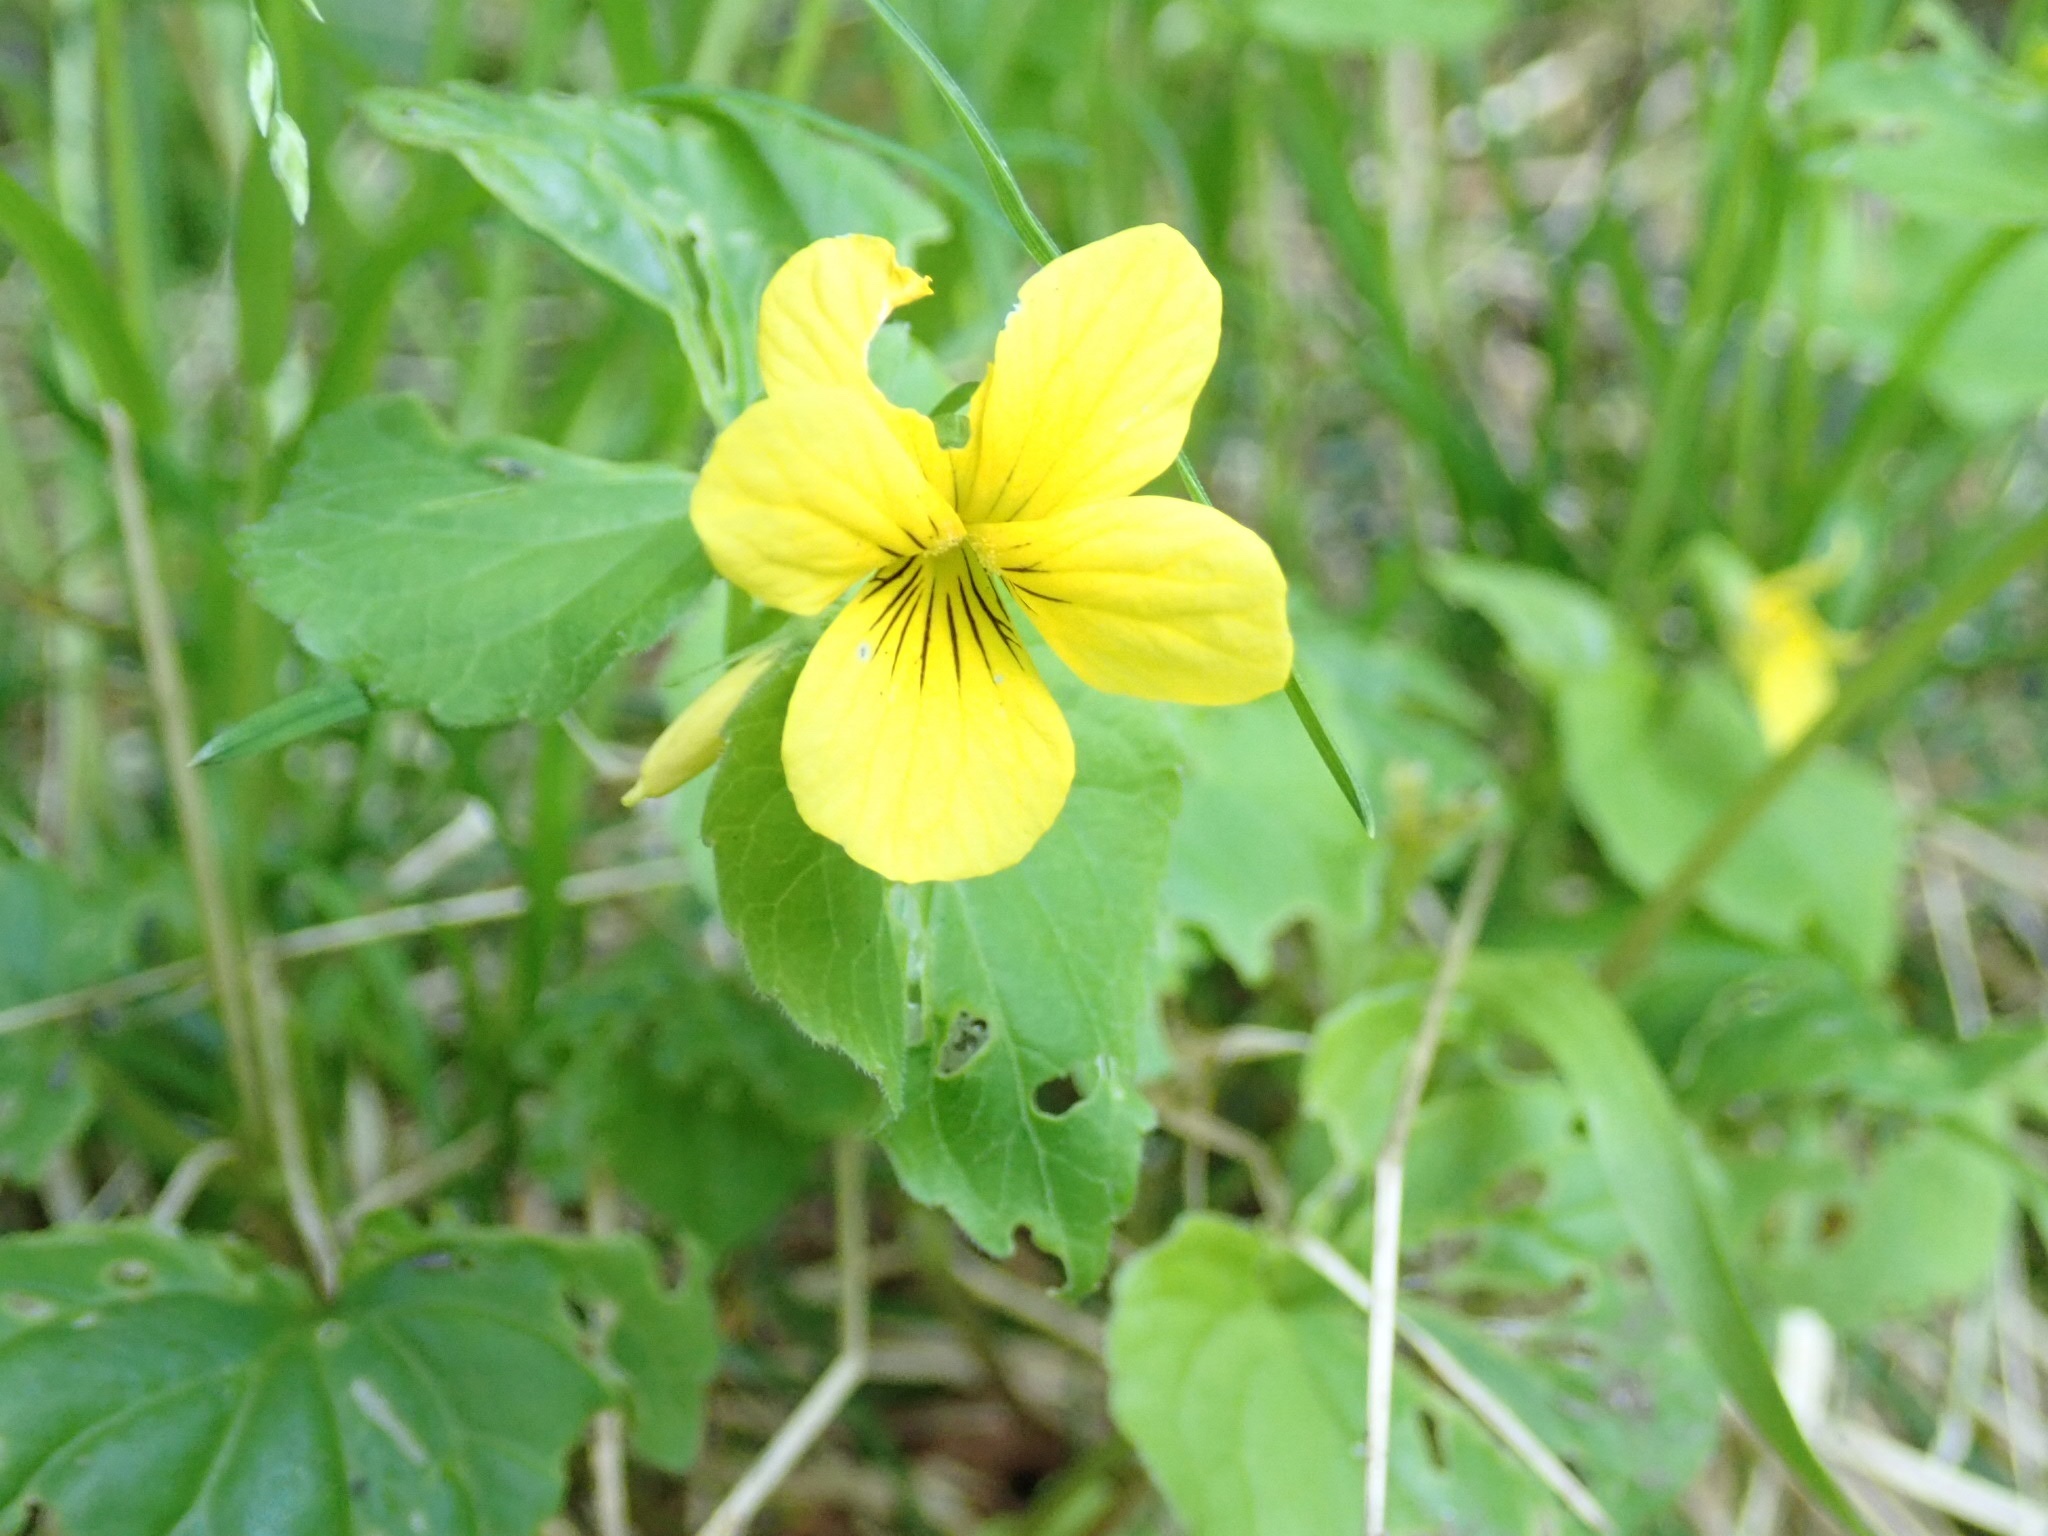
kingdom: Plantae
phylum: Tracheophyta
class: Magnoliopsida
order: Malpighiales
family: Violaceae
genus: Viola
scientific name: Viola glabella
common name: Stream violet
